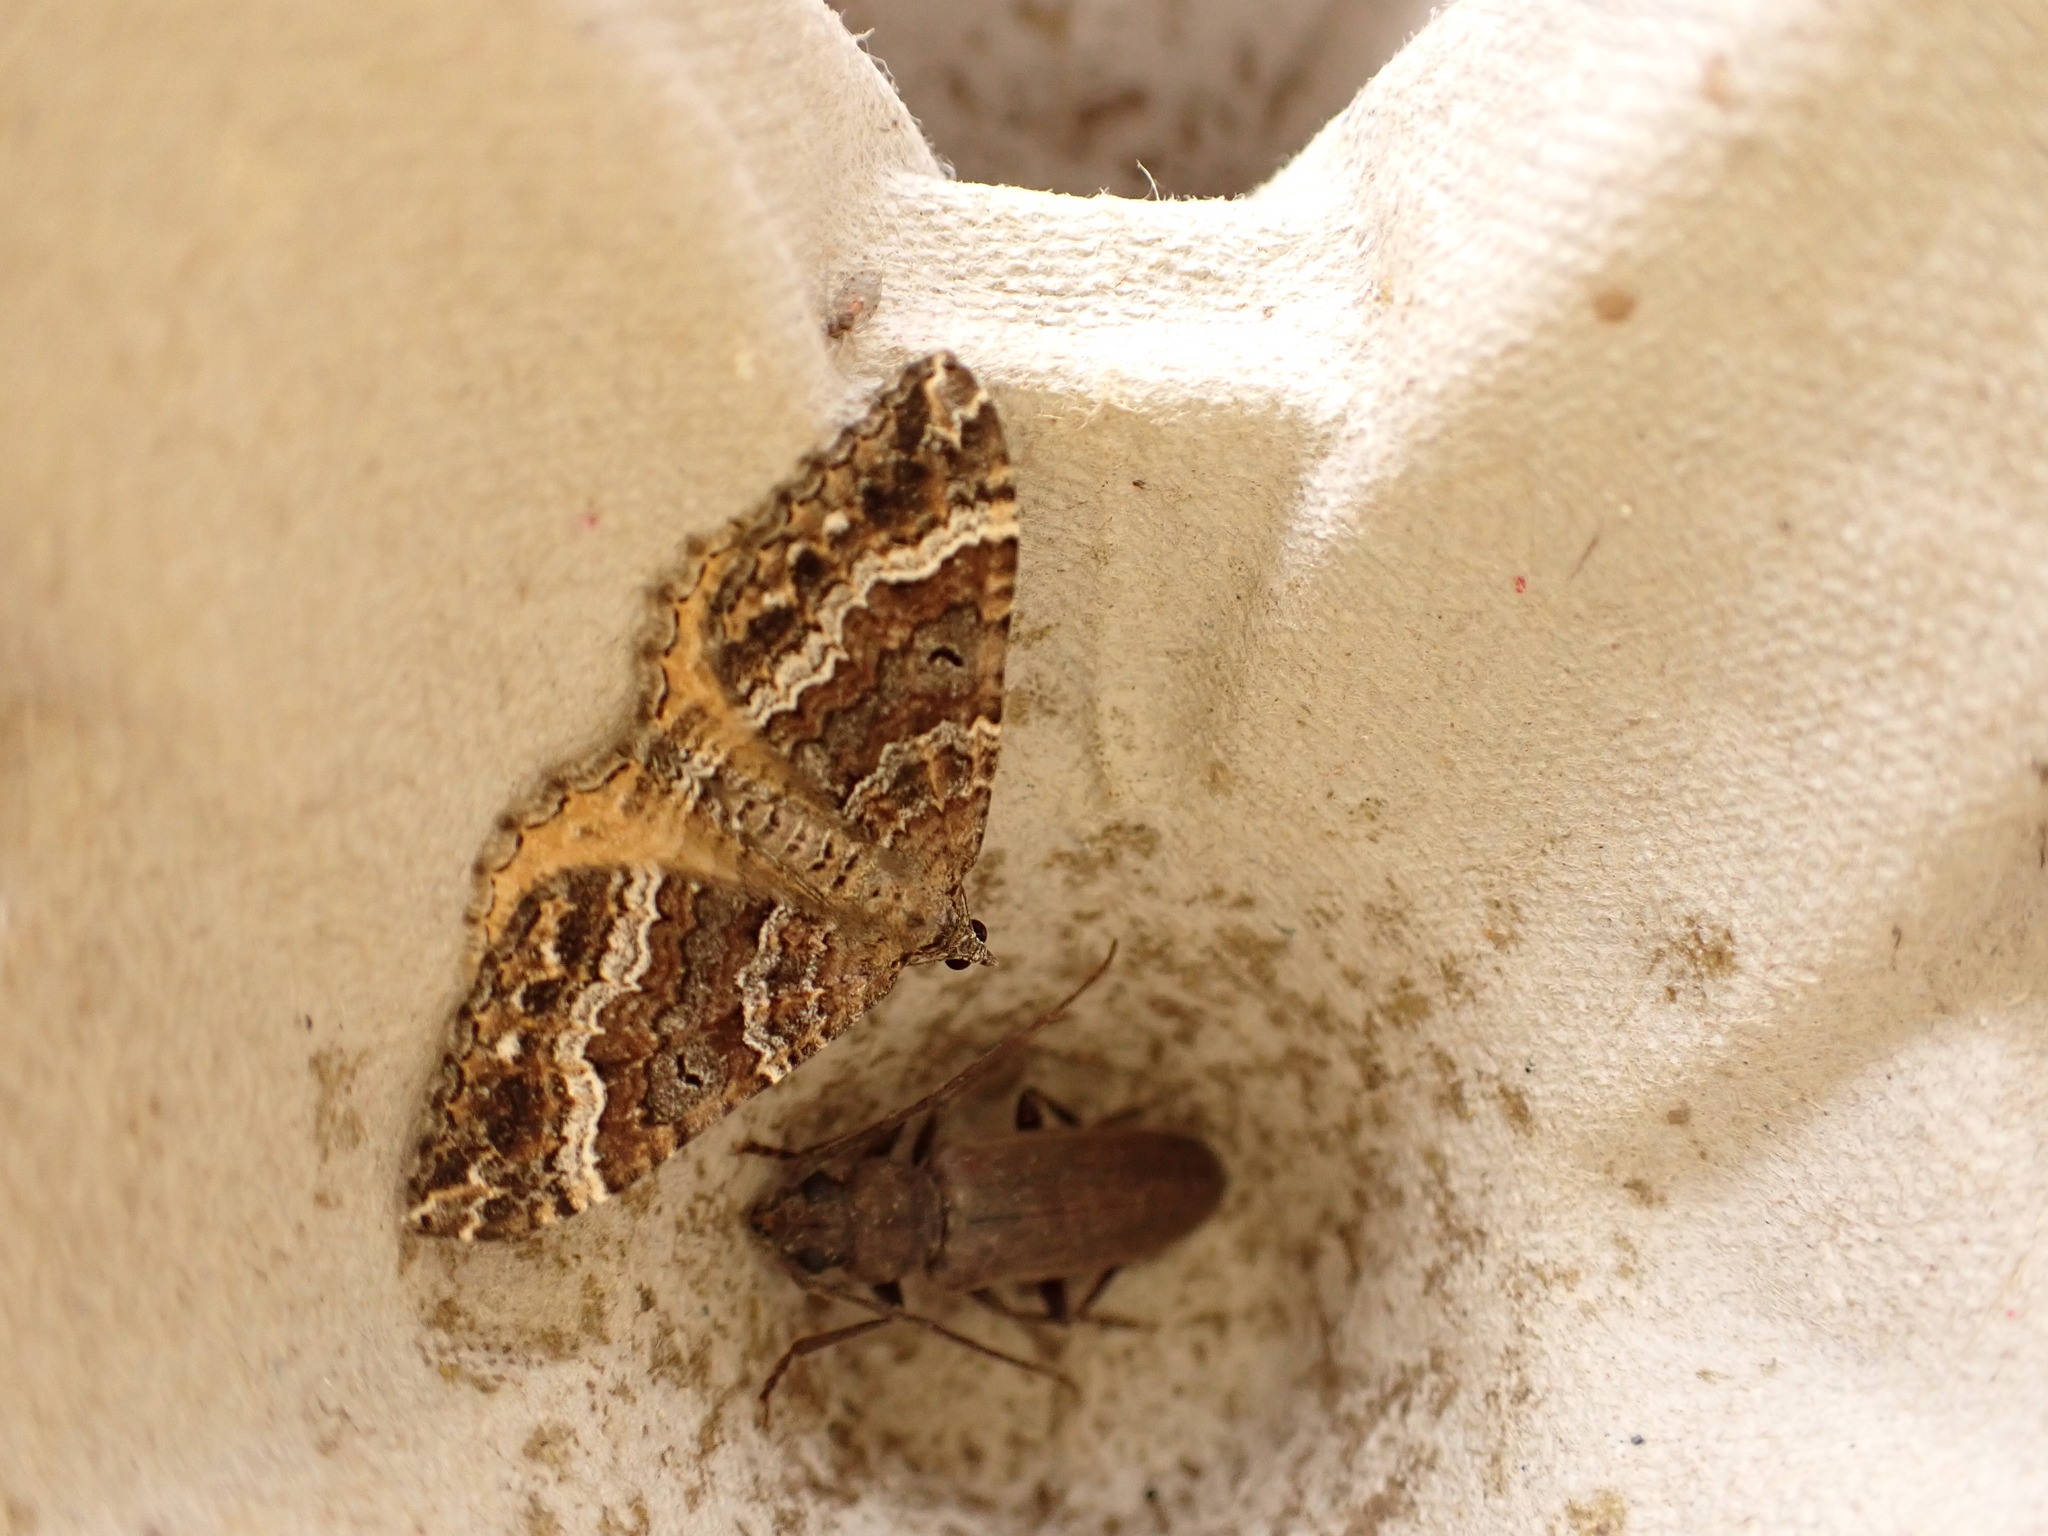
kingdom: Animalia
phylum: Arthropoda
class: Insecta
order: Lepidoptera
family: Geometridae
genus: Chrysolarentia
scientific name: Chrysolarentia subrectaria
